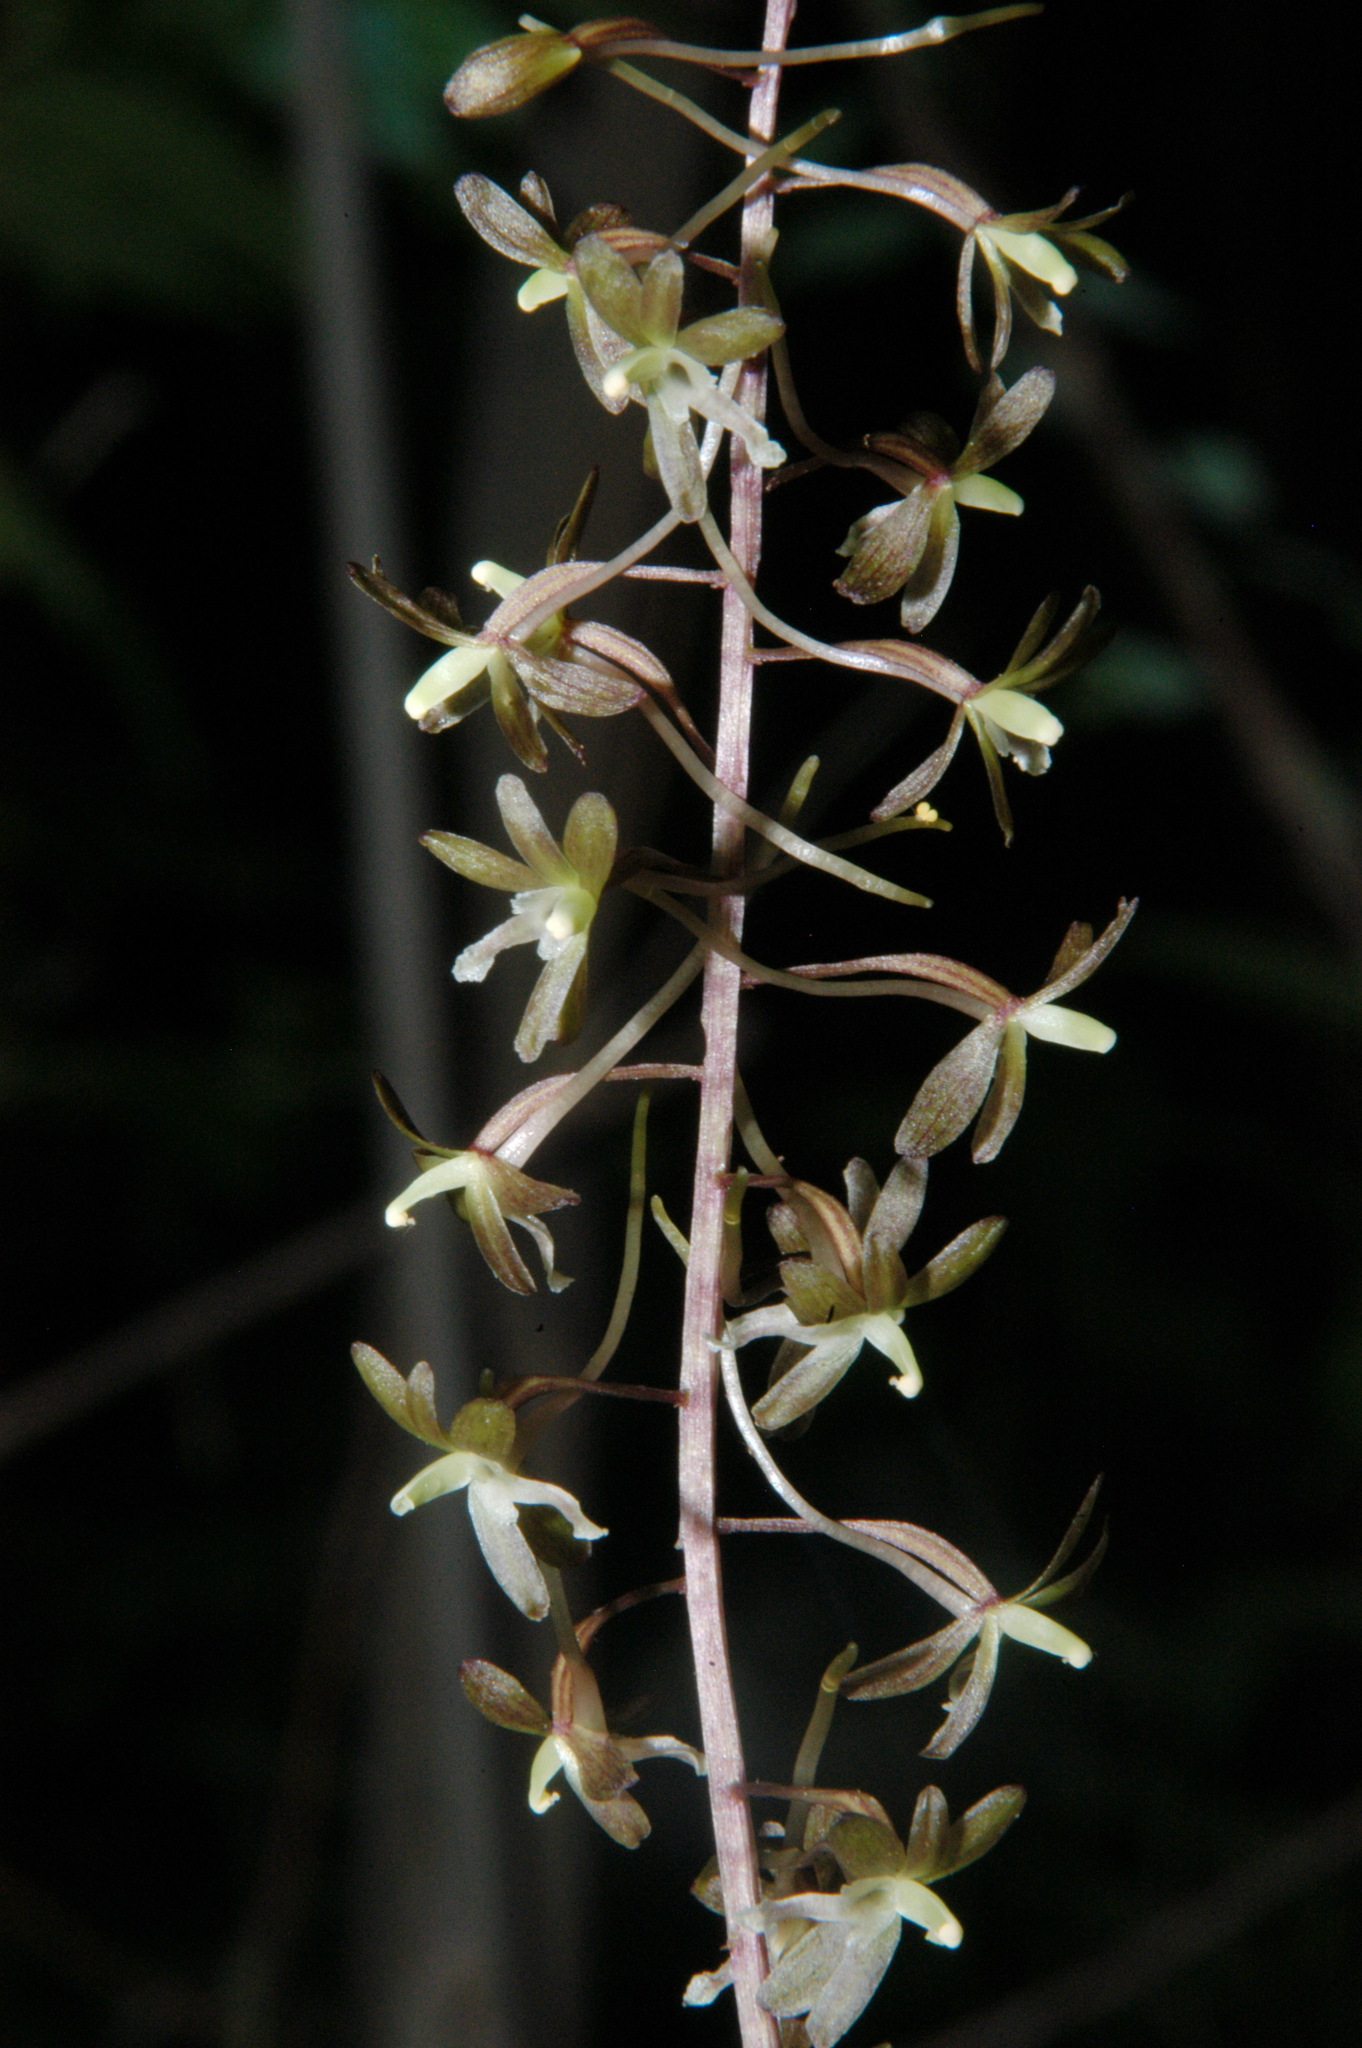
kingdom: Plantae
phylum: Tracheophyta
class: Liliopsida
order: Asparagales
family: Orchidaceae
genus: Tipularia
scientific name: Tipularia discolor
